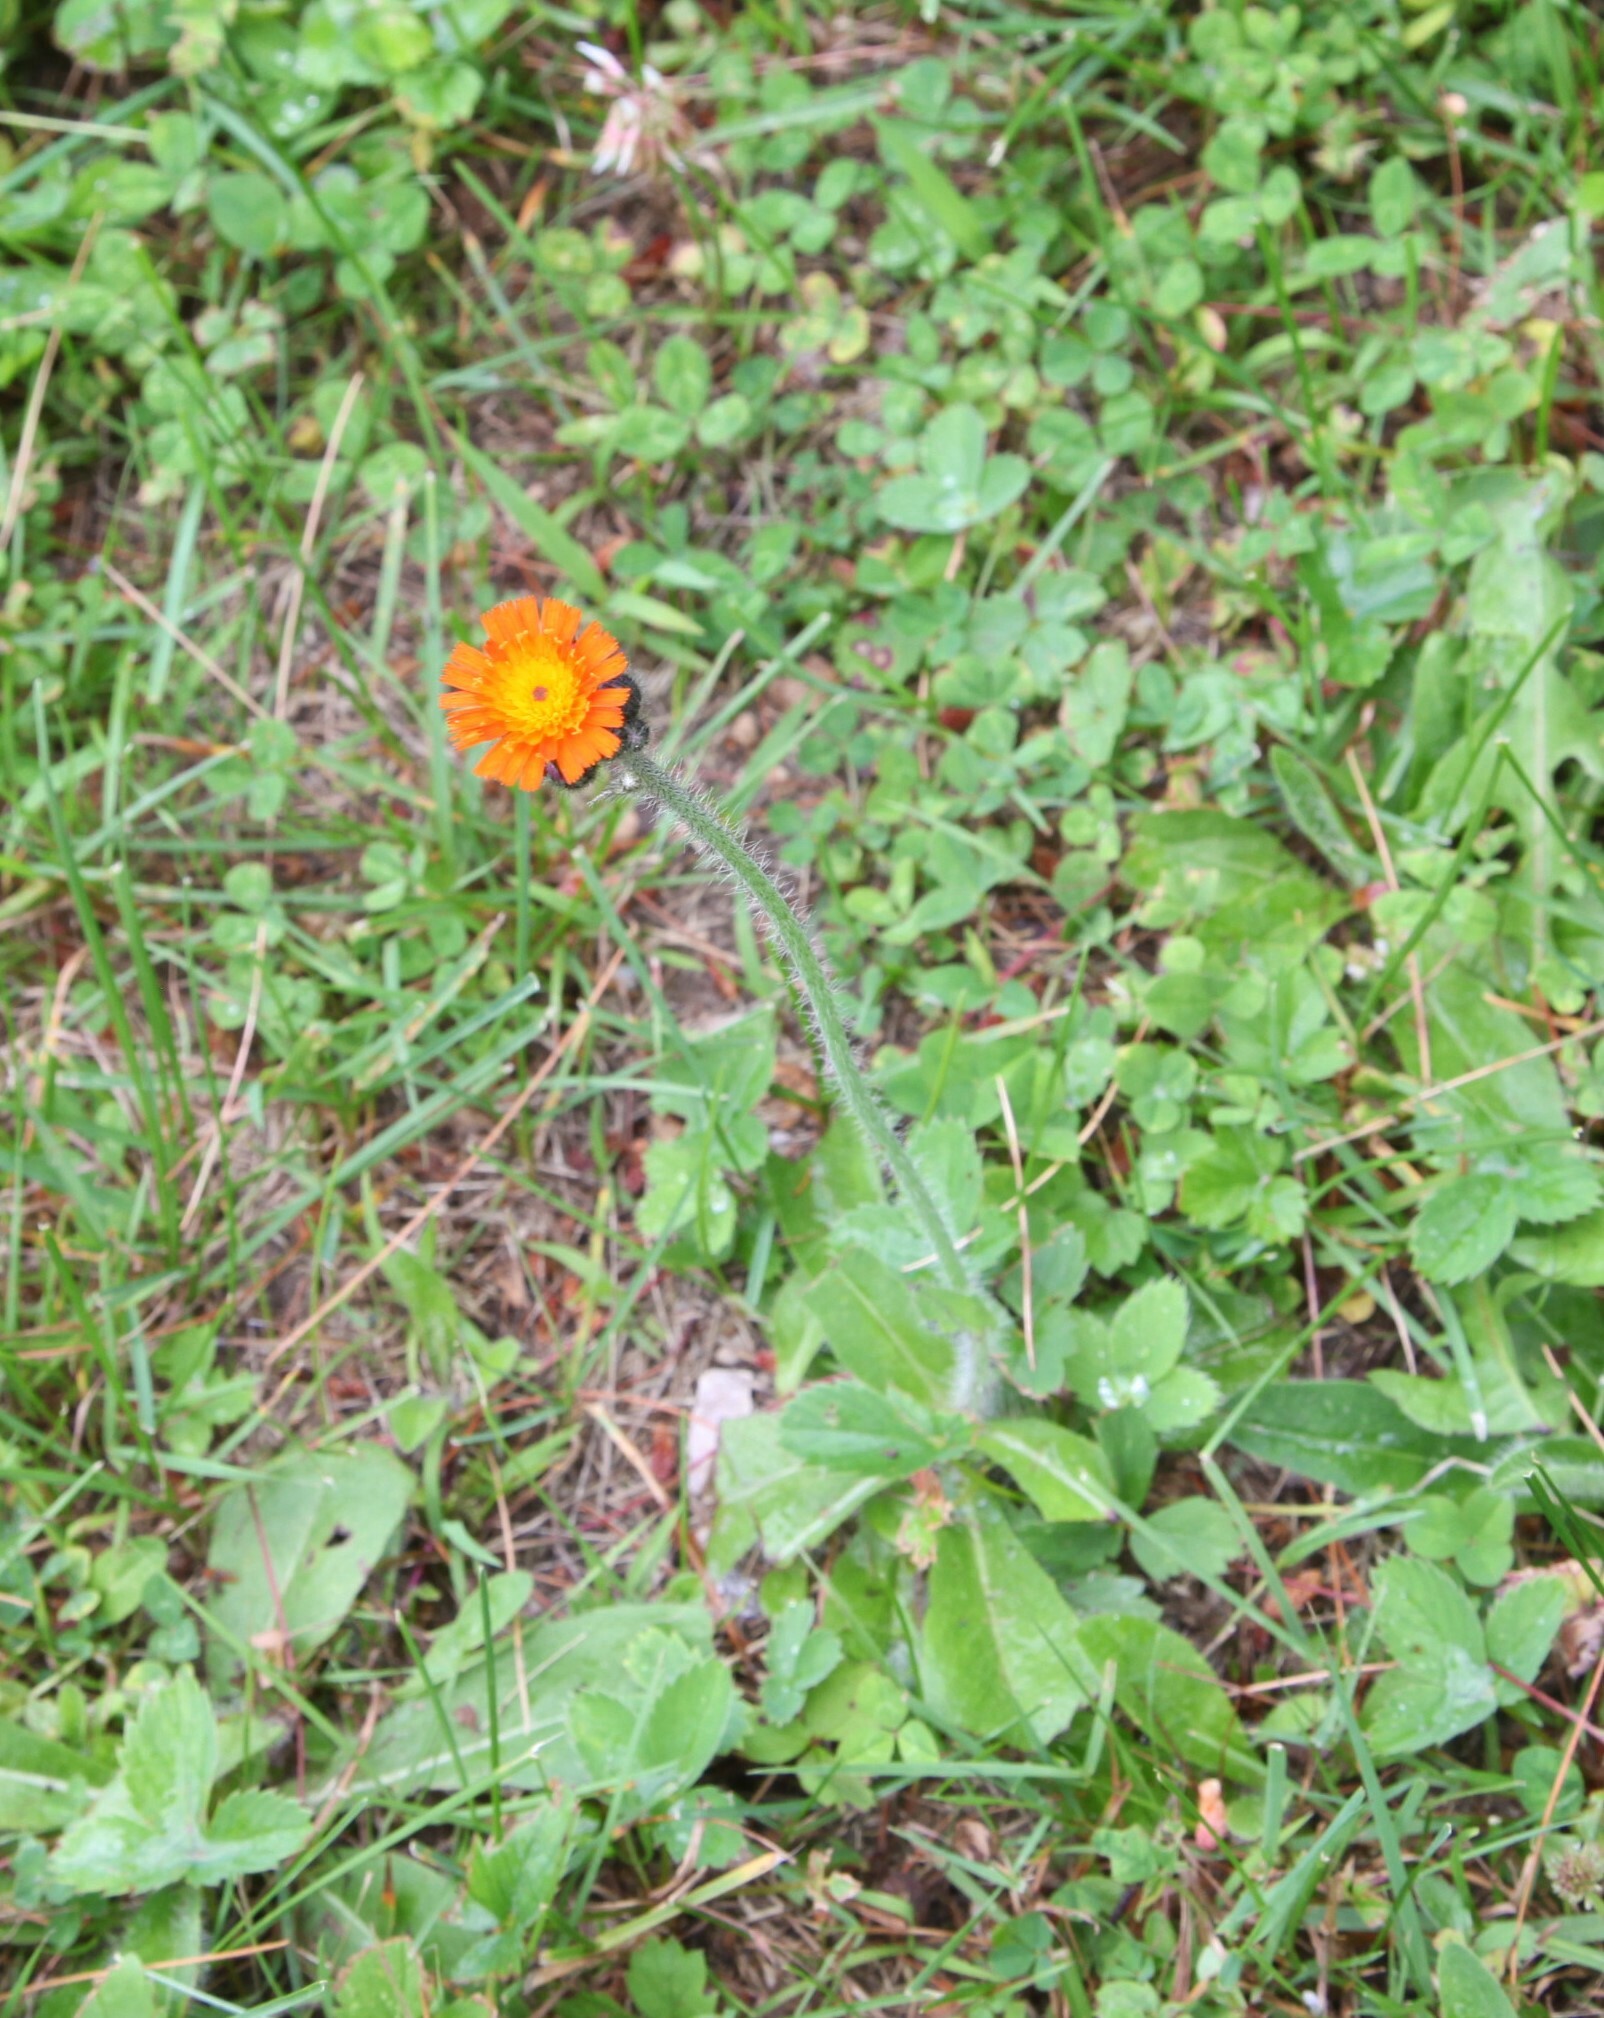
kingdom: Plantae
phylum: Tracheophyta
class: Magnoliopsida
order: Asterales
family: Asteraceae
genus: Pilosella
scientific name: Pilosella aurantiaca
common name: Fox-and-cubs
